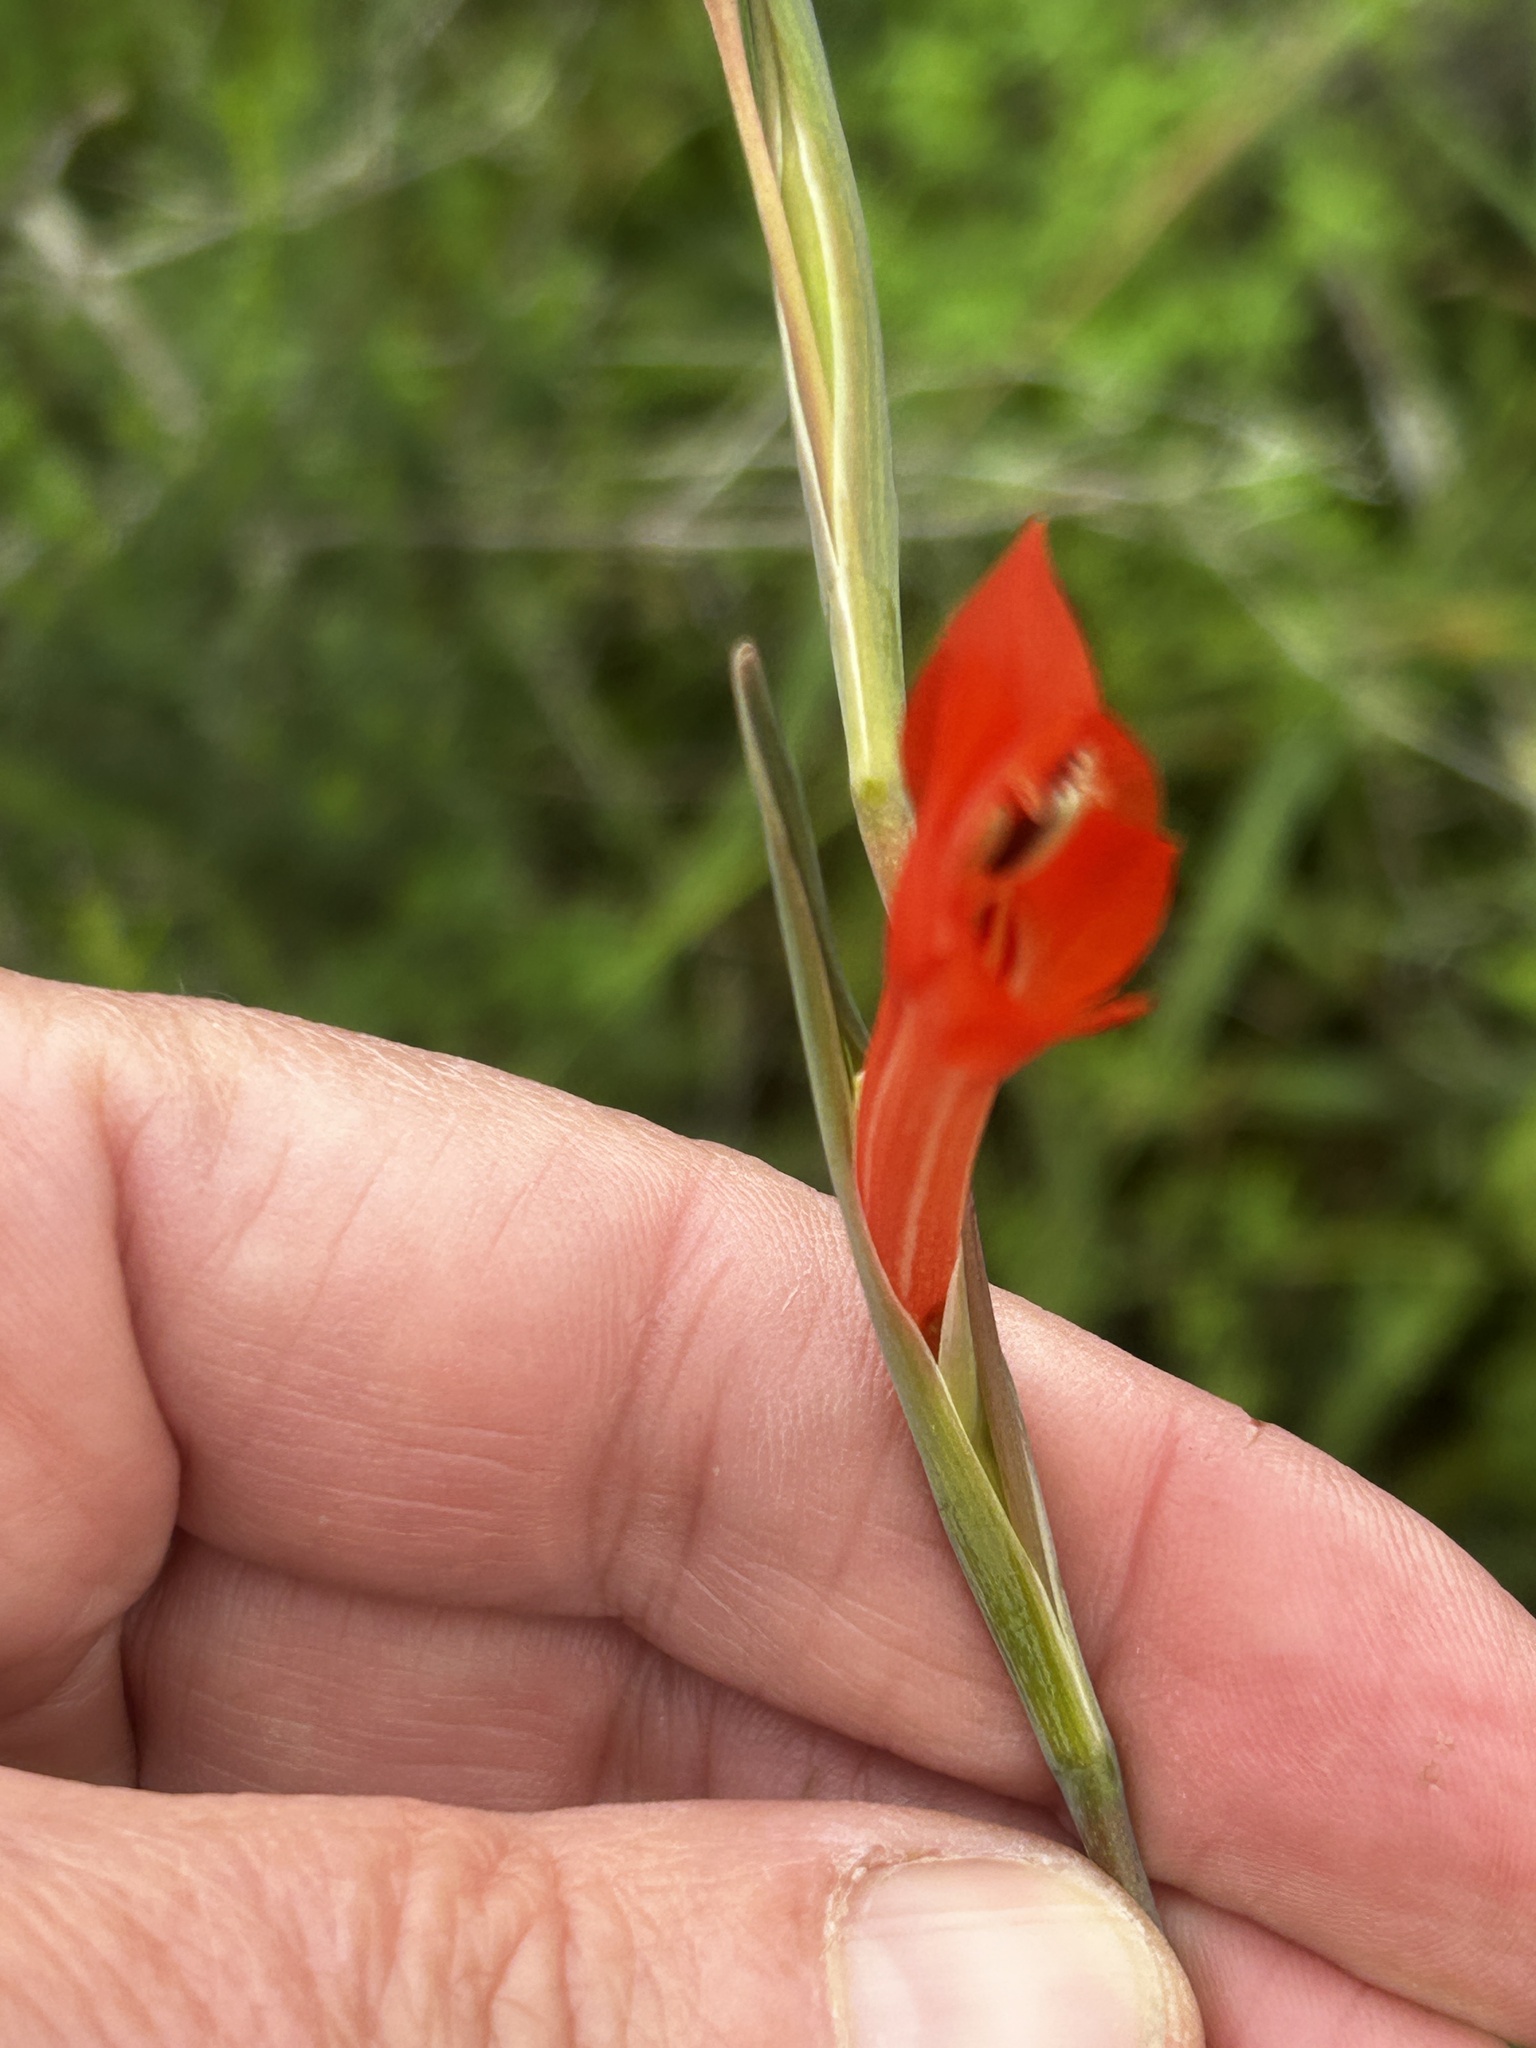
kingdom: Plantae
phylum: Tracheophyta
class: Liliopsida
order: Asparagales
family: Iridaceae
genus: Gladiolus
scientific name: Gladiolus teretifolius
